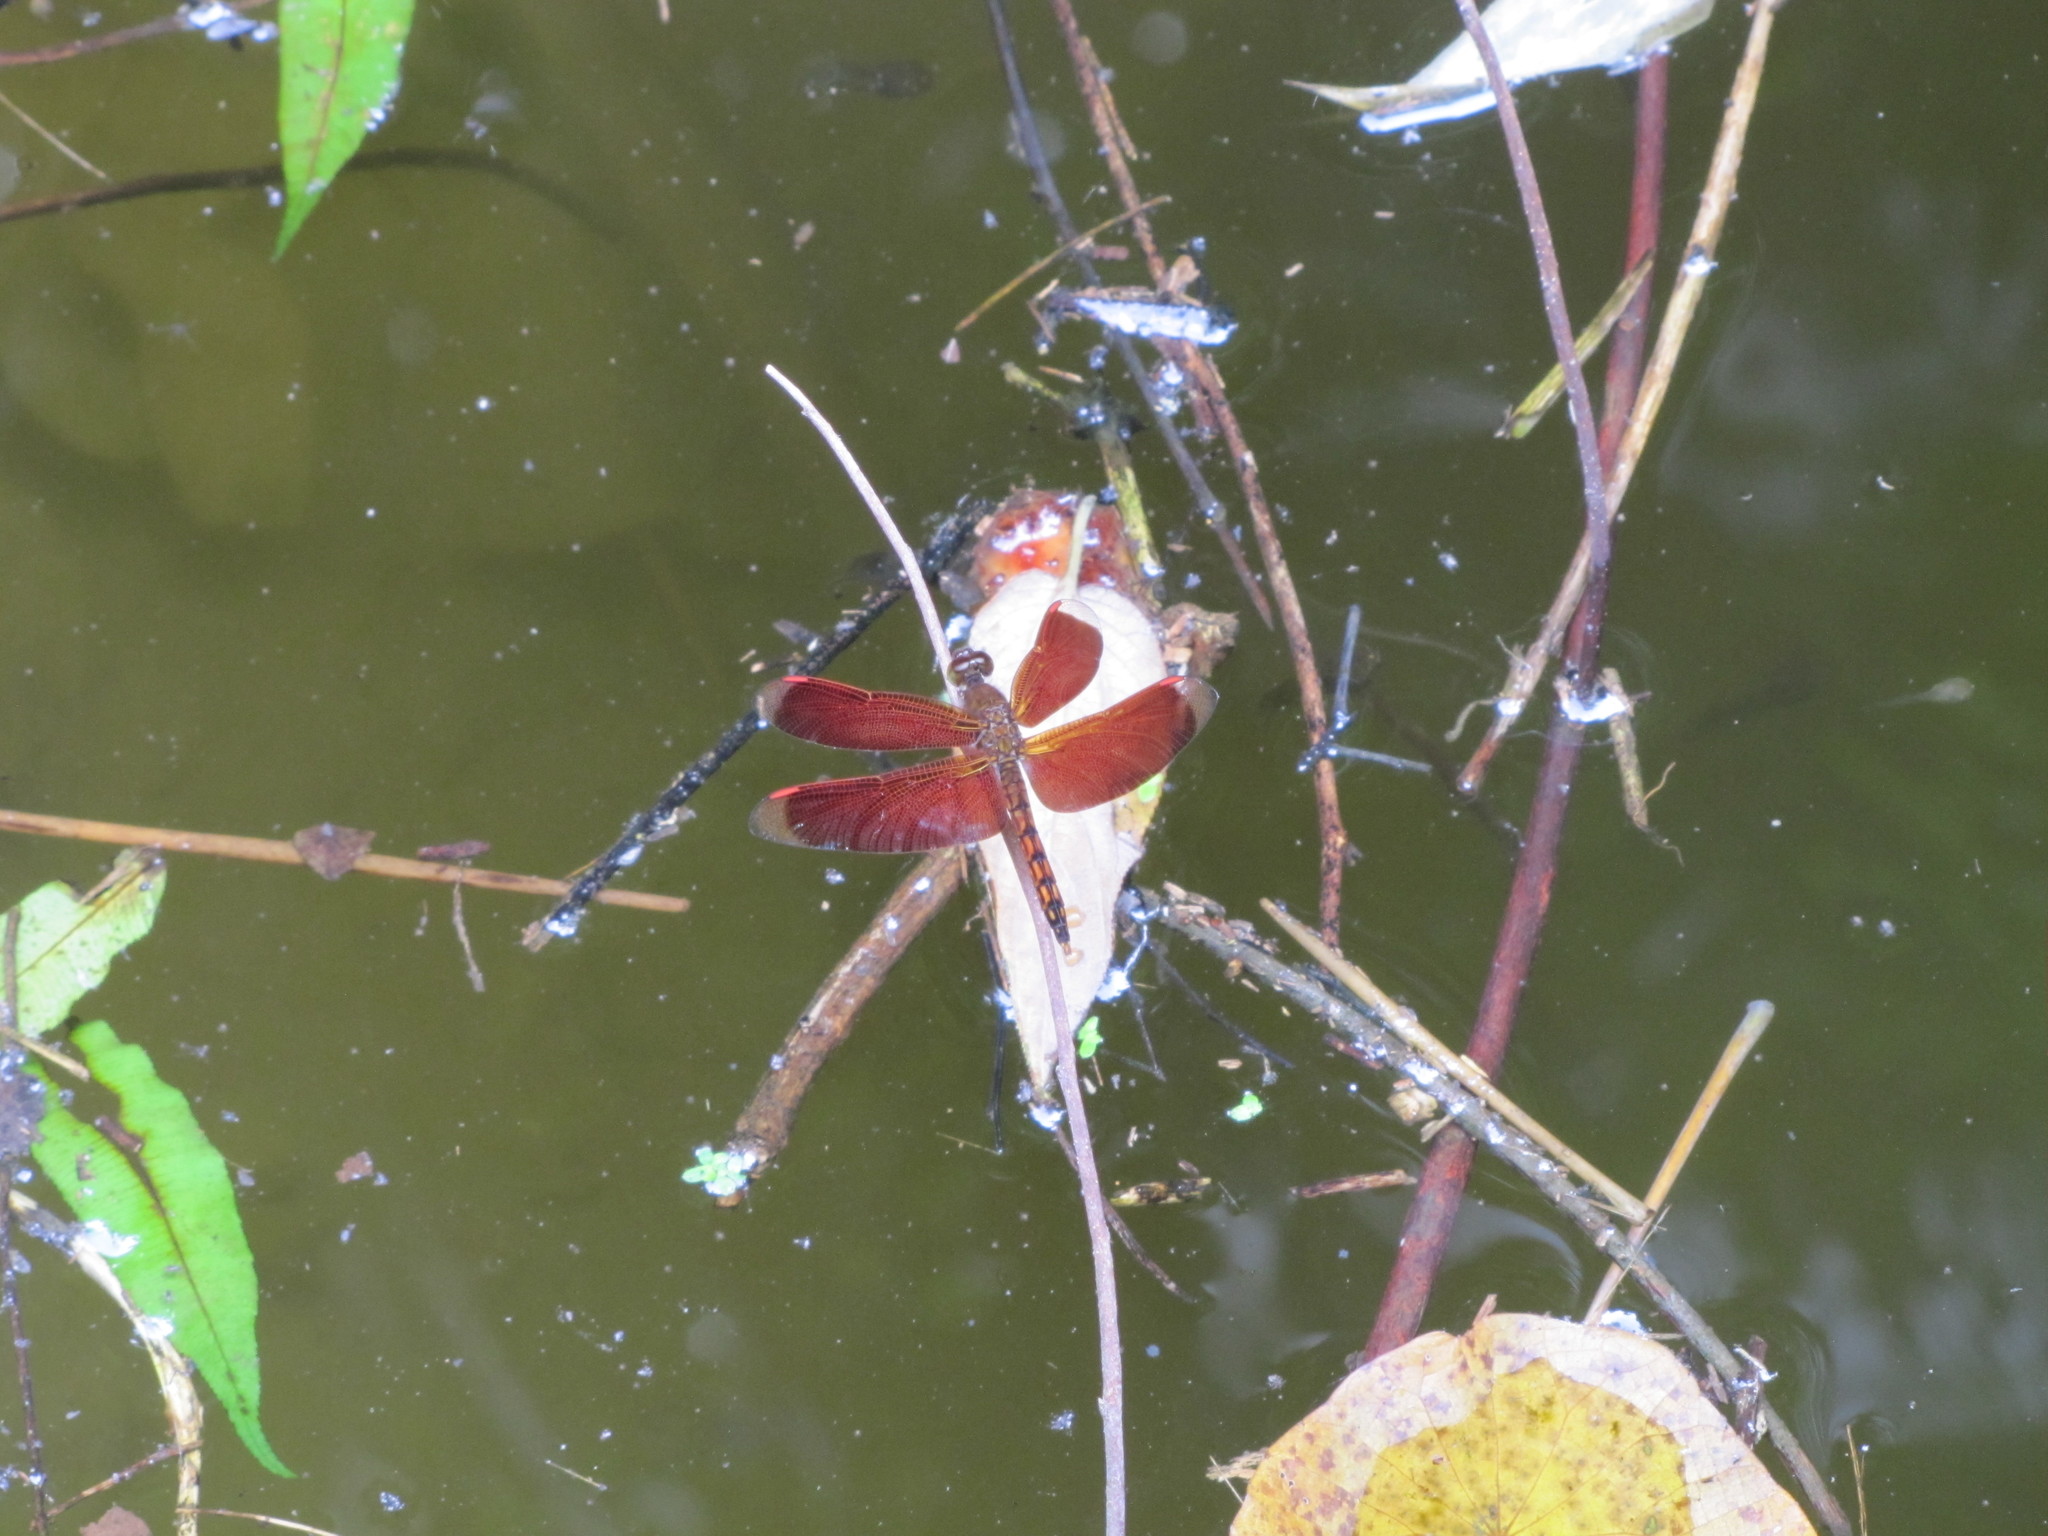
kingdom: Animalia
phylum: Arthropoda
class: Insecta
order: Odonata
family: Libellulidae
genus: Neurothemis
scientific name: Neurothemis taiwanensis
